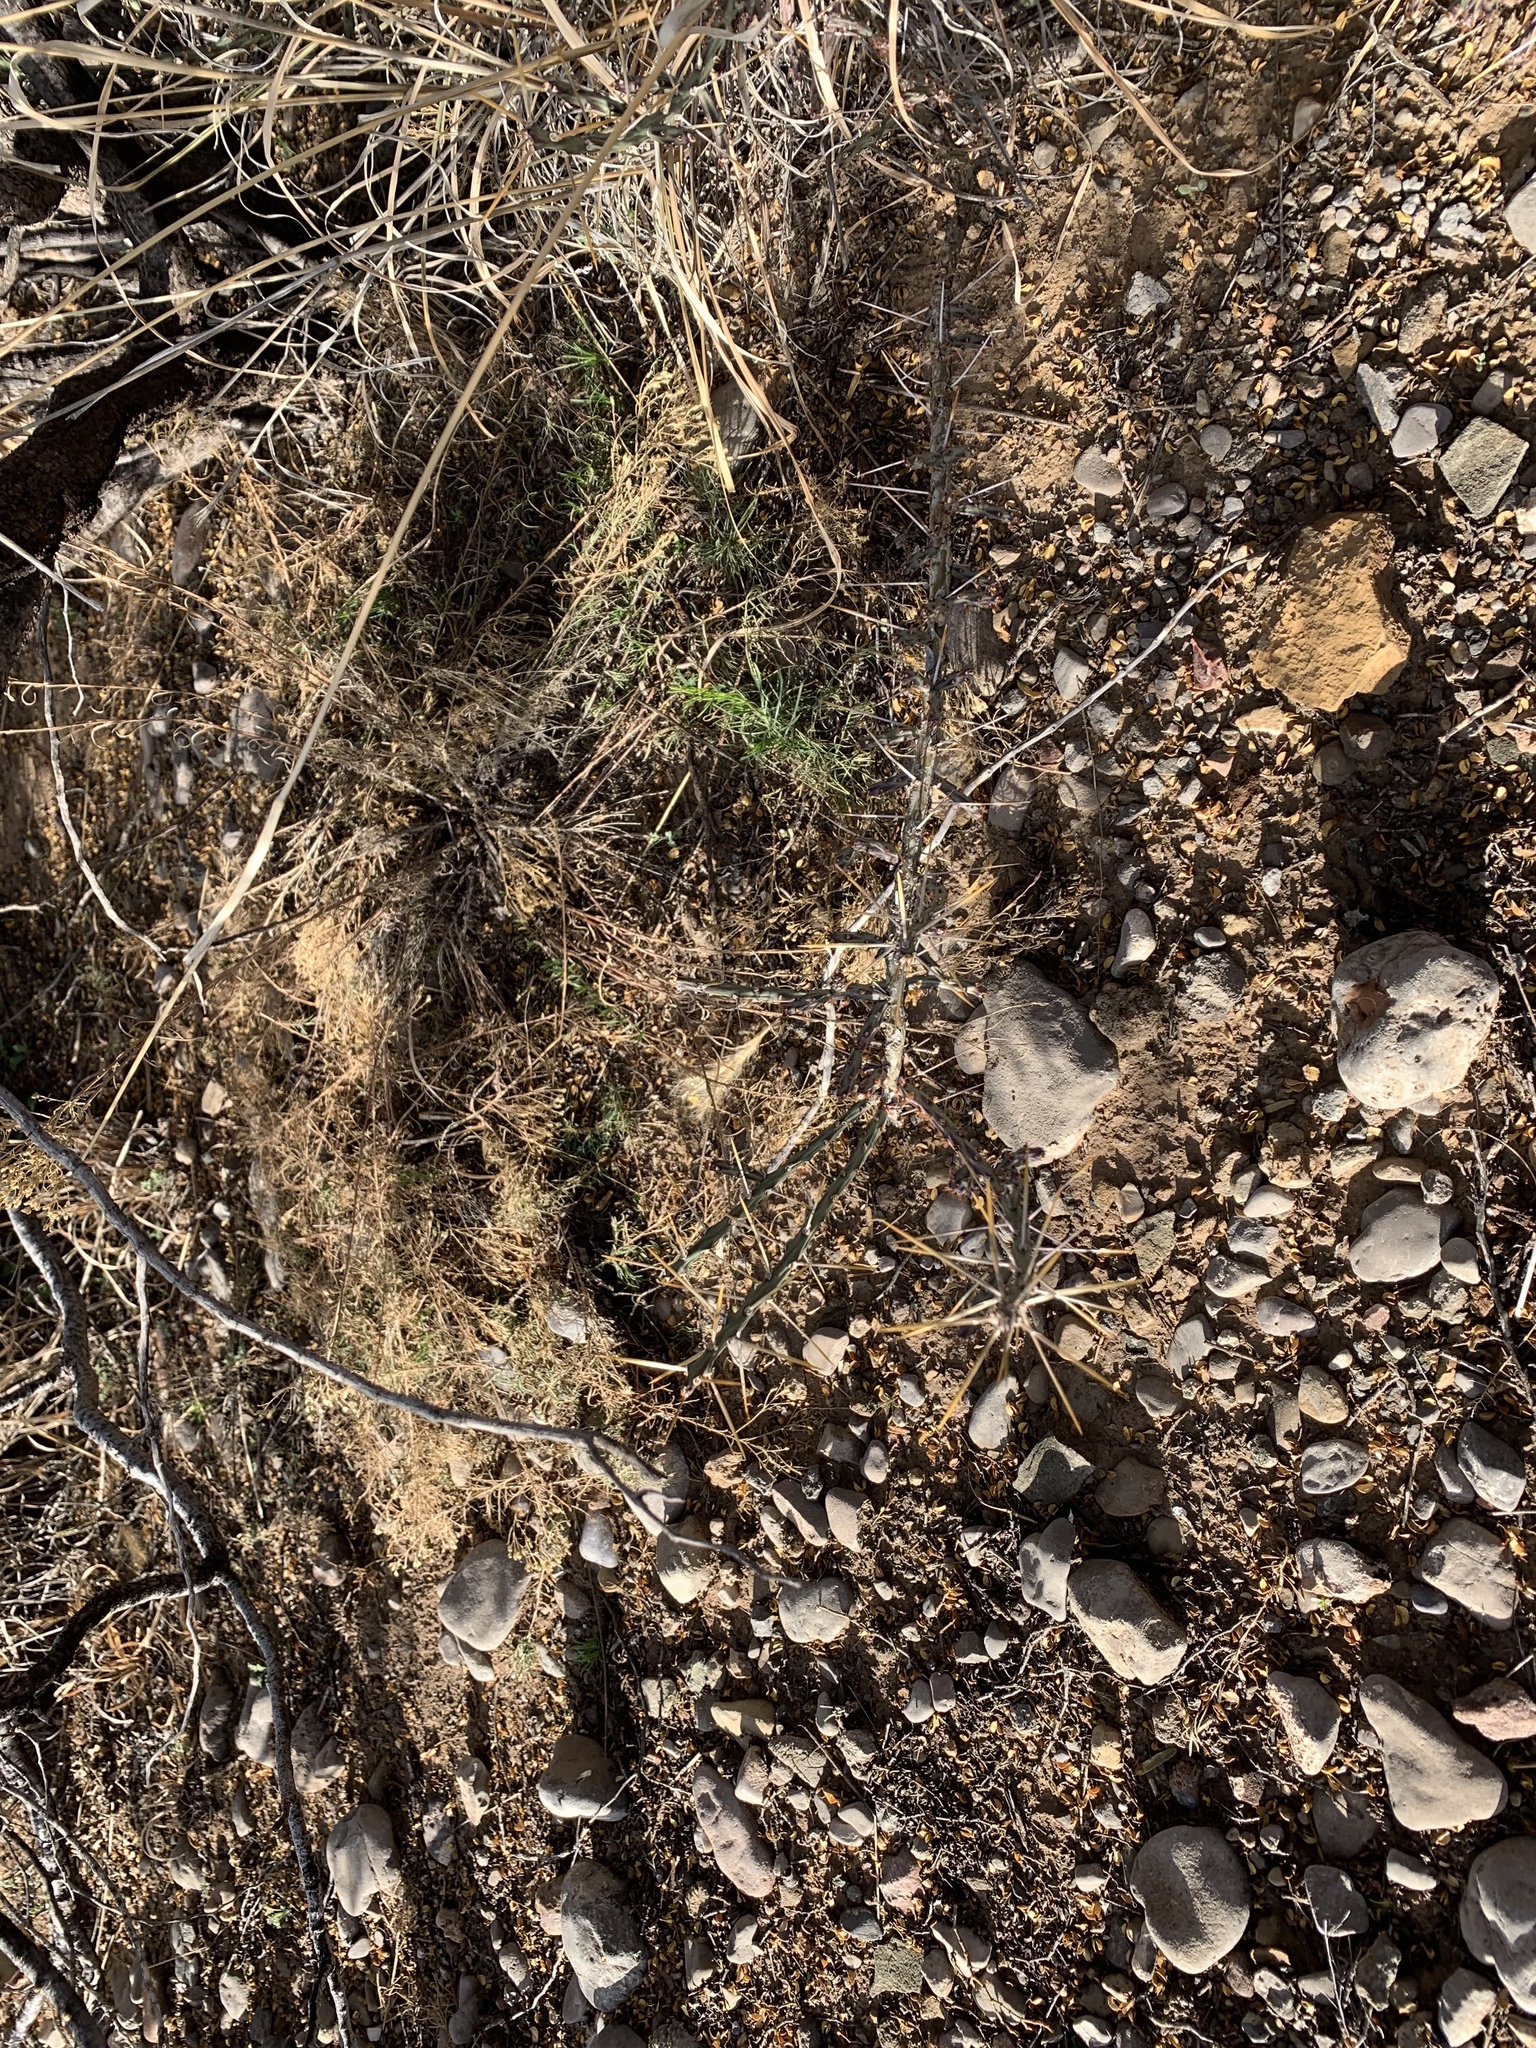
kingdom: Plantae
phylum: Tracheophyta
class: Magnoliopsida
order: Caryophyllales
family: Cactaceae
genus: Cylindropuntia
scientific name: Cylindropuntia leptocaulis
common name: Christmas cactus
